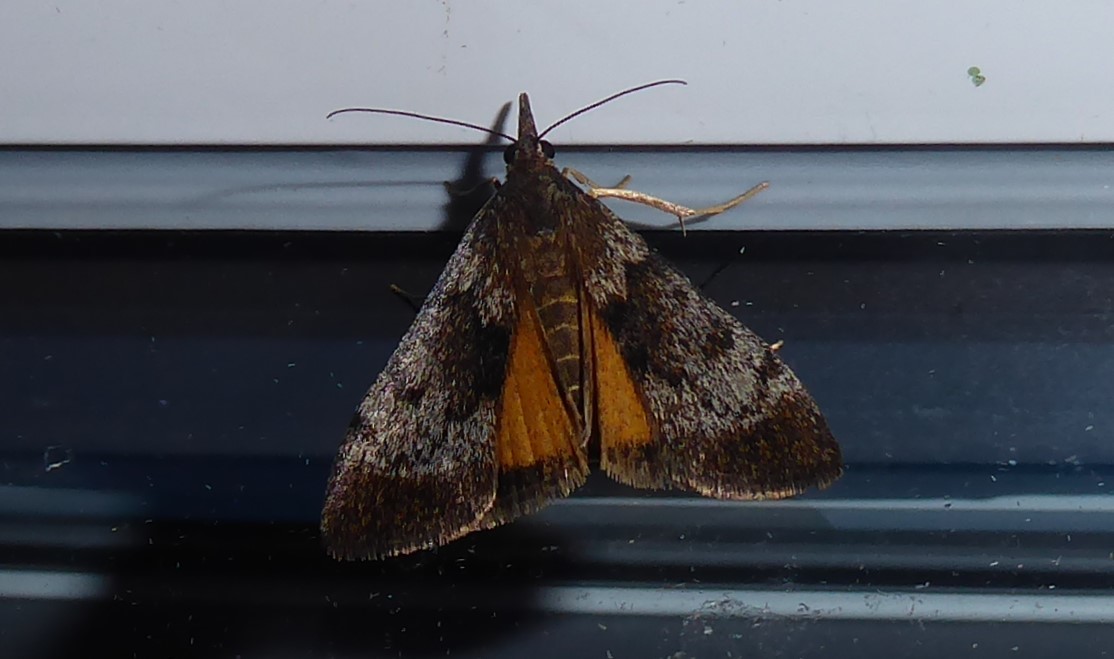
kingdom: Animalia
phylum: Arthropoda
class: Insecta
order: Lepidoptera
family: Crambidae
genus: Uresiphita
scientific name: Uresiphita
